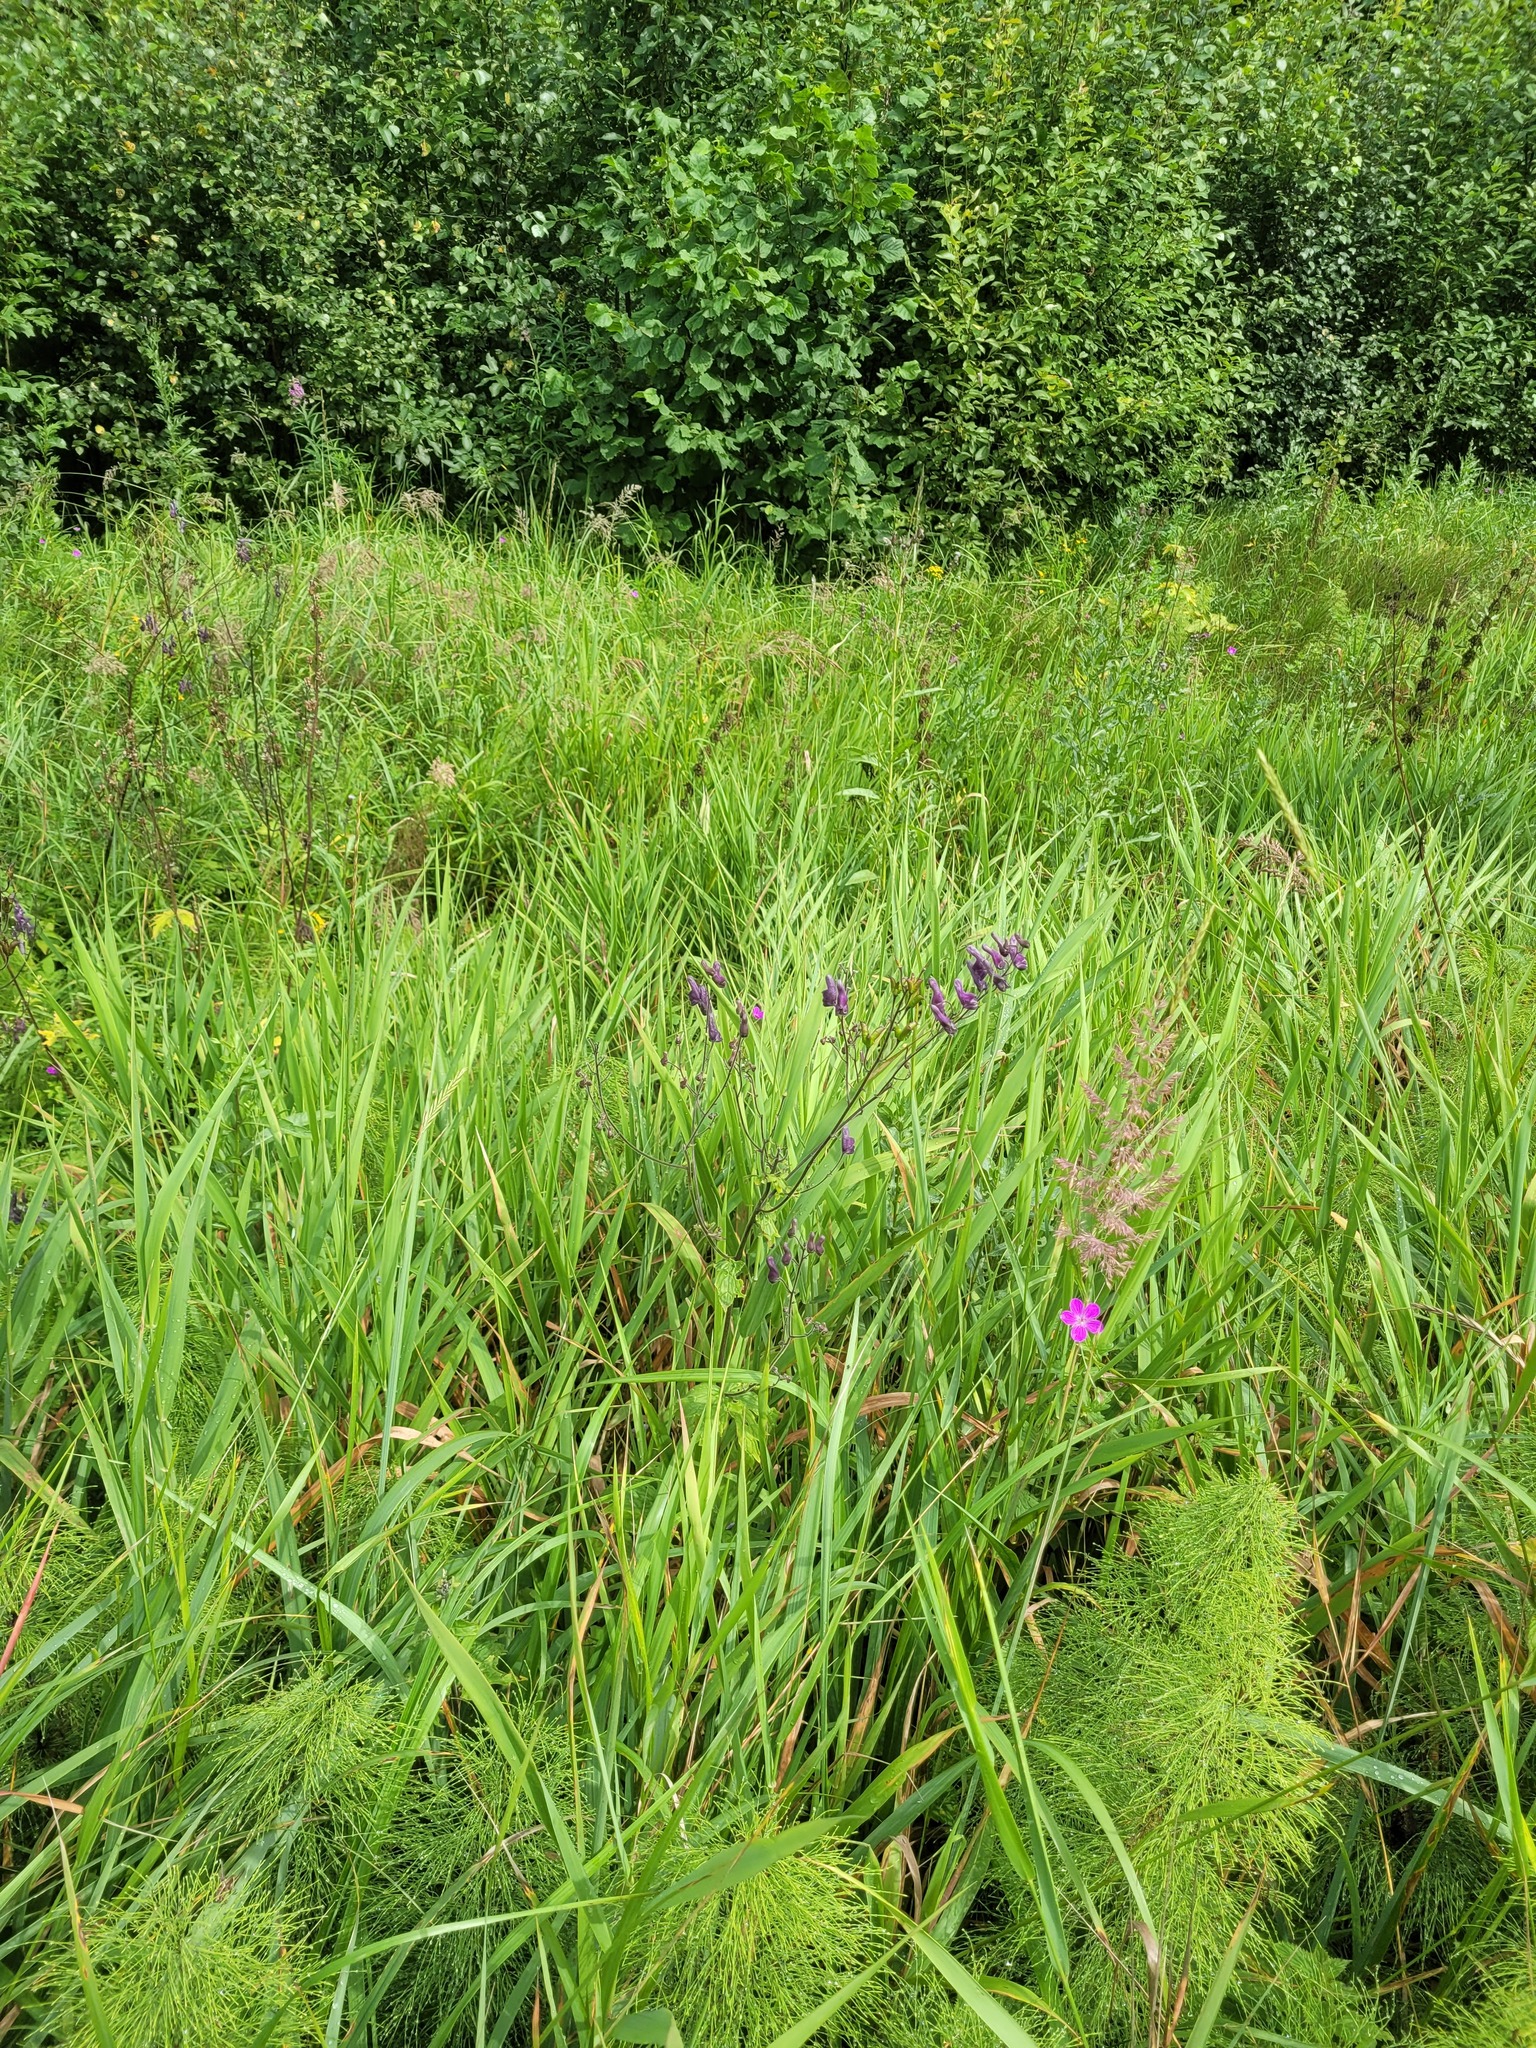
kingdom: Plantae
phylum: Tracheophyta
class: Magnoliopsida
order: Ranunculales
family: Ranunculaceae
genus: Aconitum
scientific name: Aconitum septentrionale
